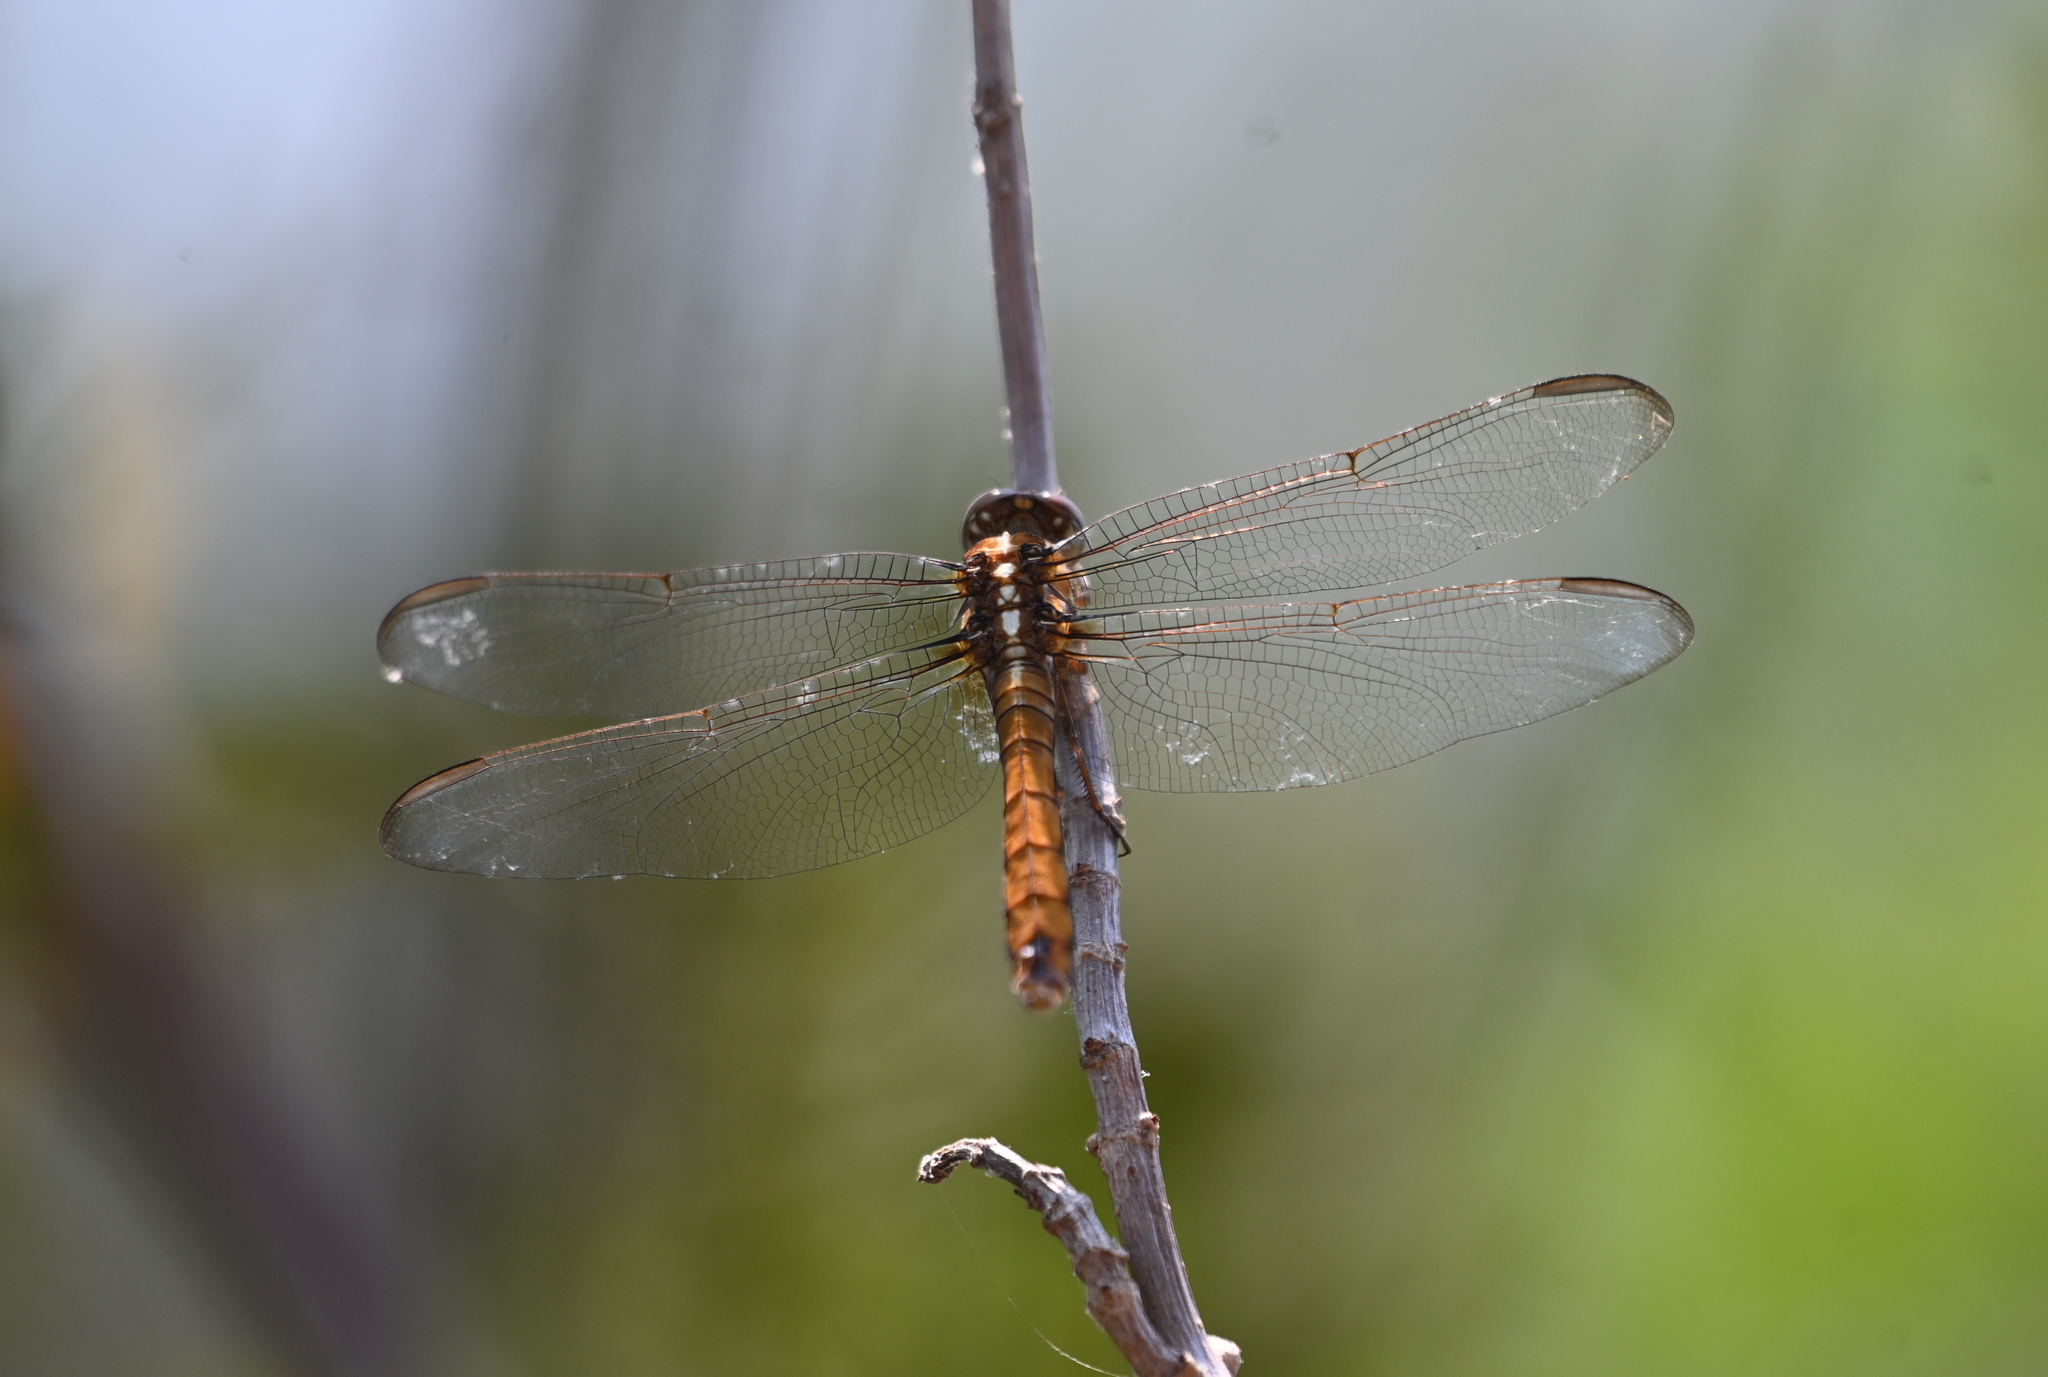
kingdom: Animalia
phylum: Arthropoda
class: Insecta
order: Odonata
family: Libellulidae
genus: Orthemis
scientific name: Orthemis ferruginea
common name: Roseate skimmer
